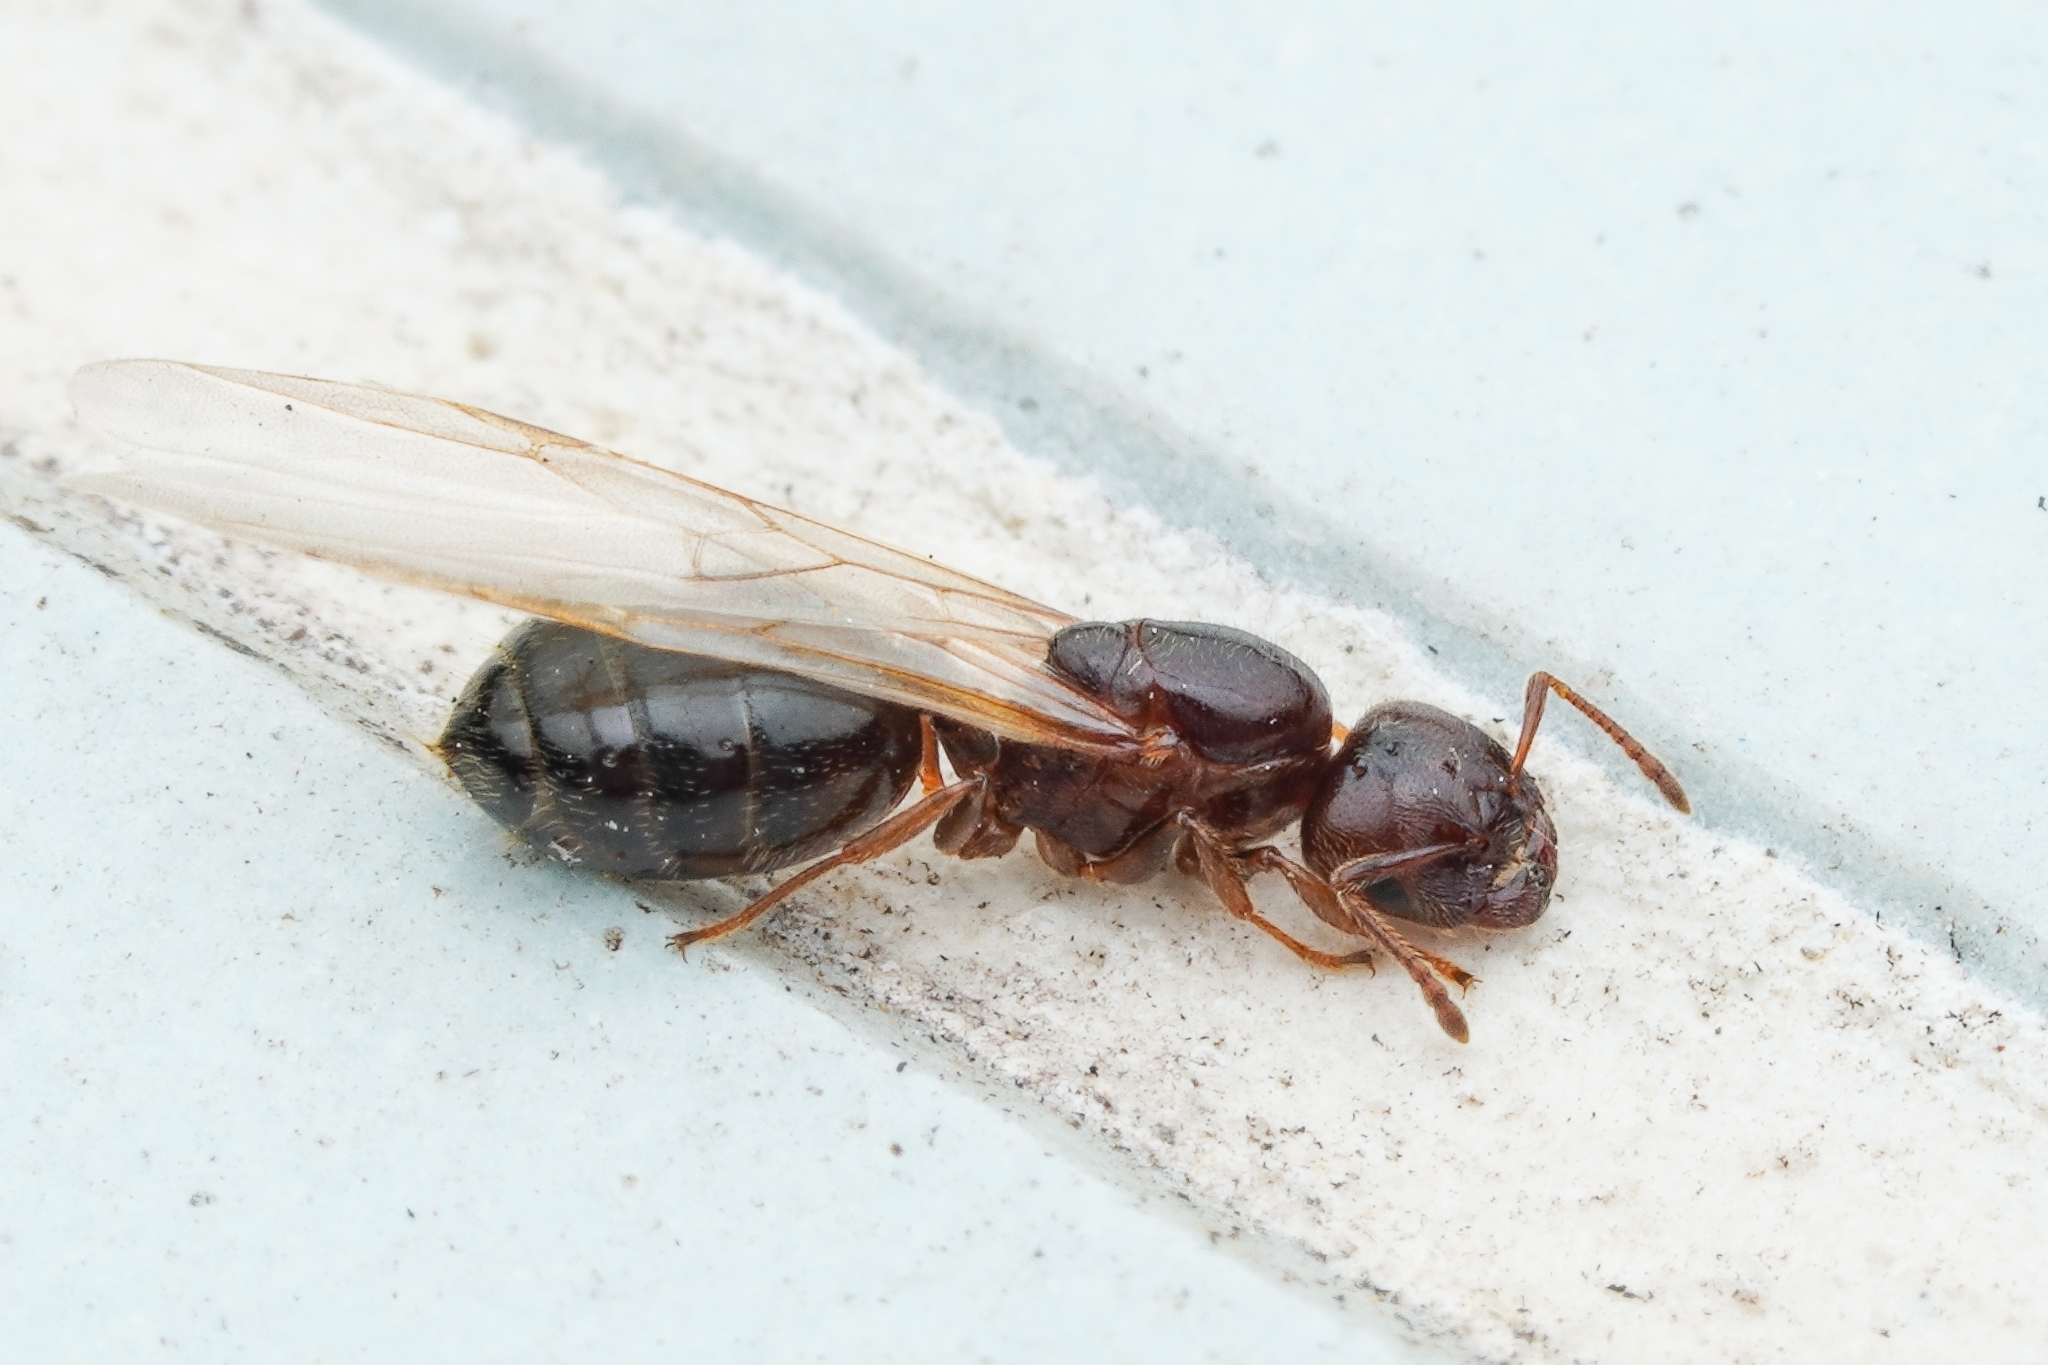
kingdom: Animalia
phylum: Arthropoda
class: Insecta
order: Hymenoptera
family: Formicidae
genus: Crematogaster
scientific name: Crematogaster teranishii
